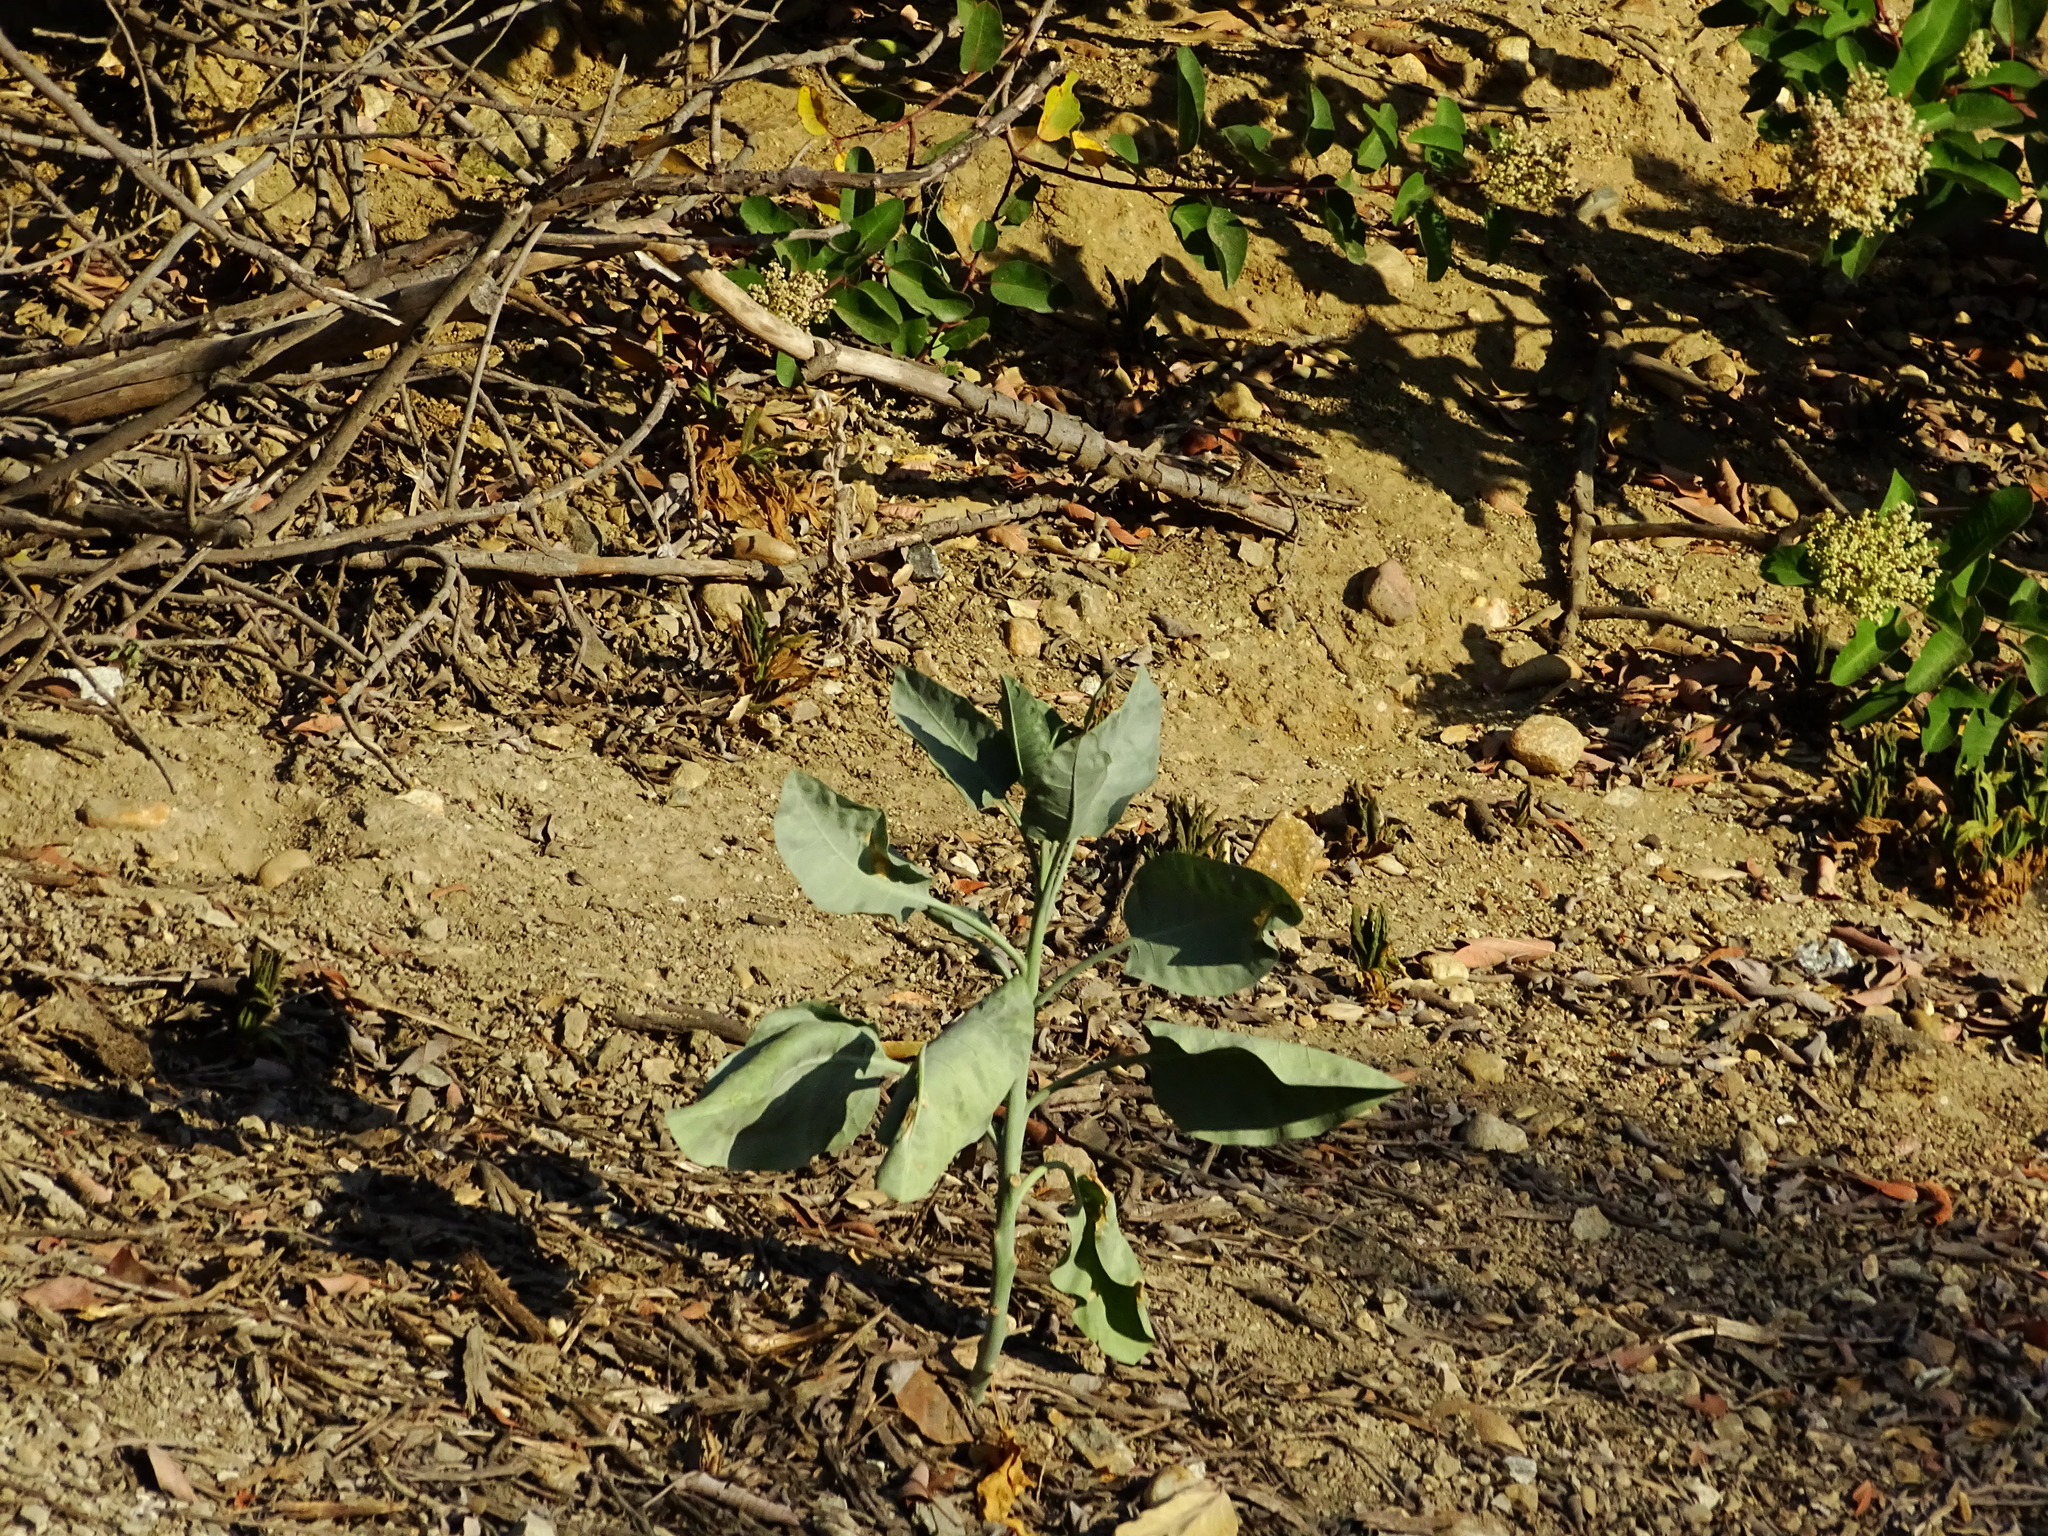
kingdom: Plantae
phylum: Tracheophyta
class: Magnoliopsida
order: Solanales
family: Solanaceae
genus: Nicotiana
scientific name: Nicotiana glauca
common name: Tree tobacco
